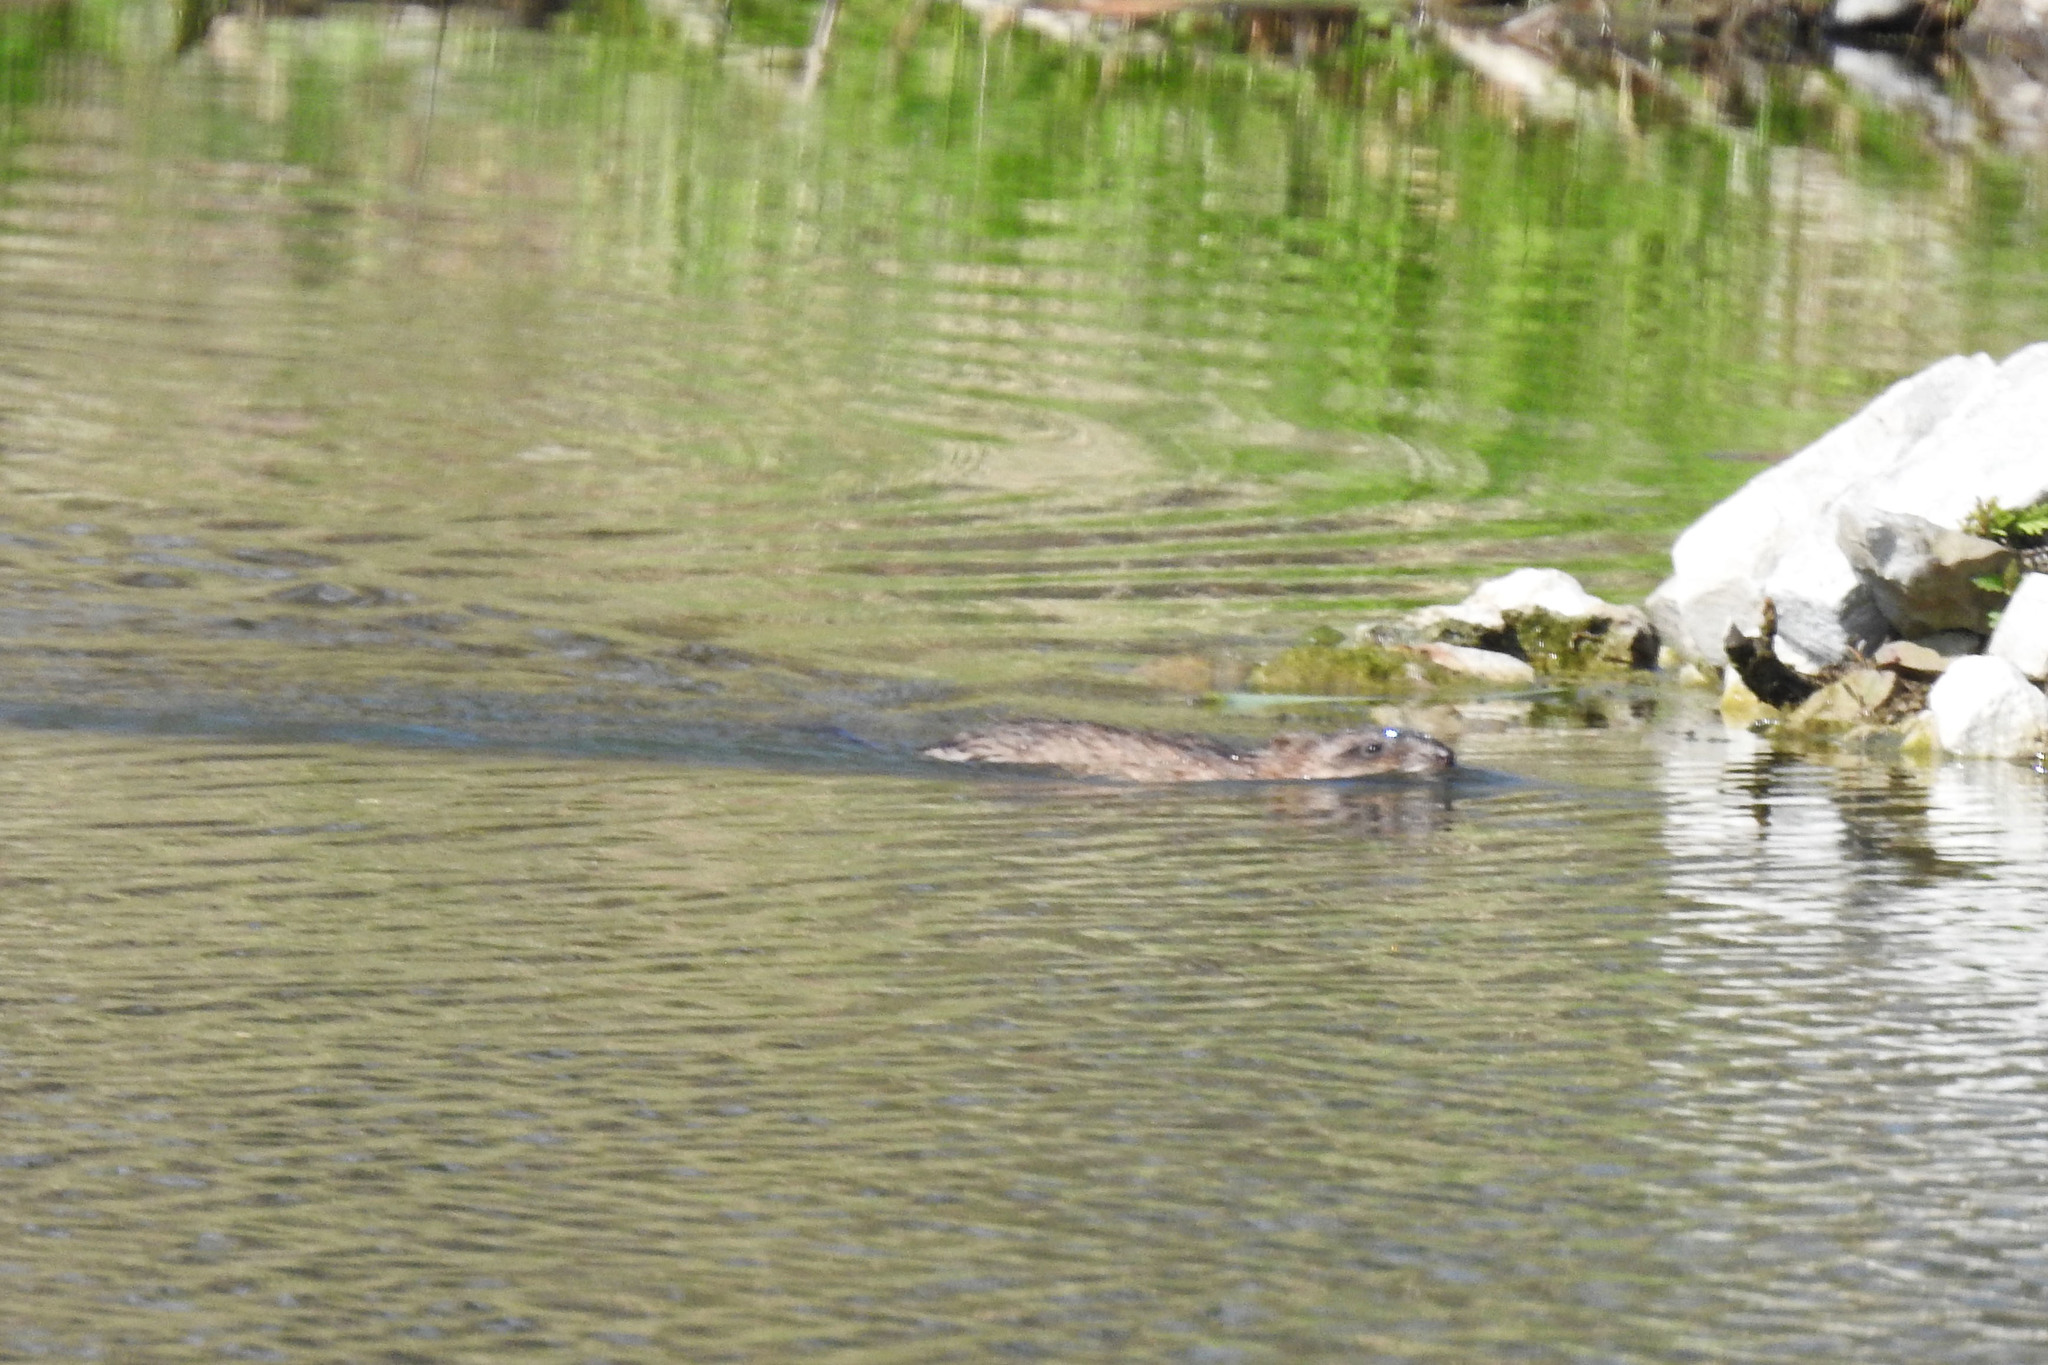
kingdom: Animalia
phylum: Chordata
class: Mammalia
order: Rodentia
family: Cricetidae
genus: Ondatra
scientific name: Ondatra zibethicus
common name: Muskrat
